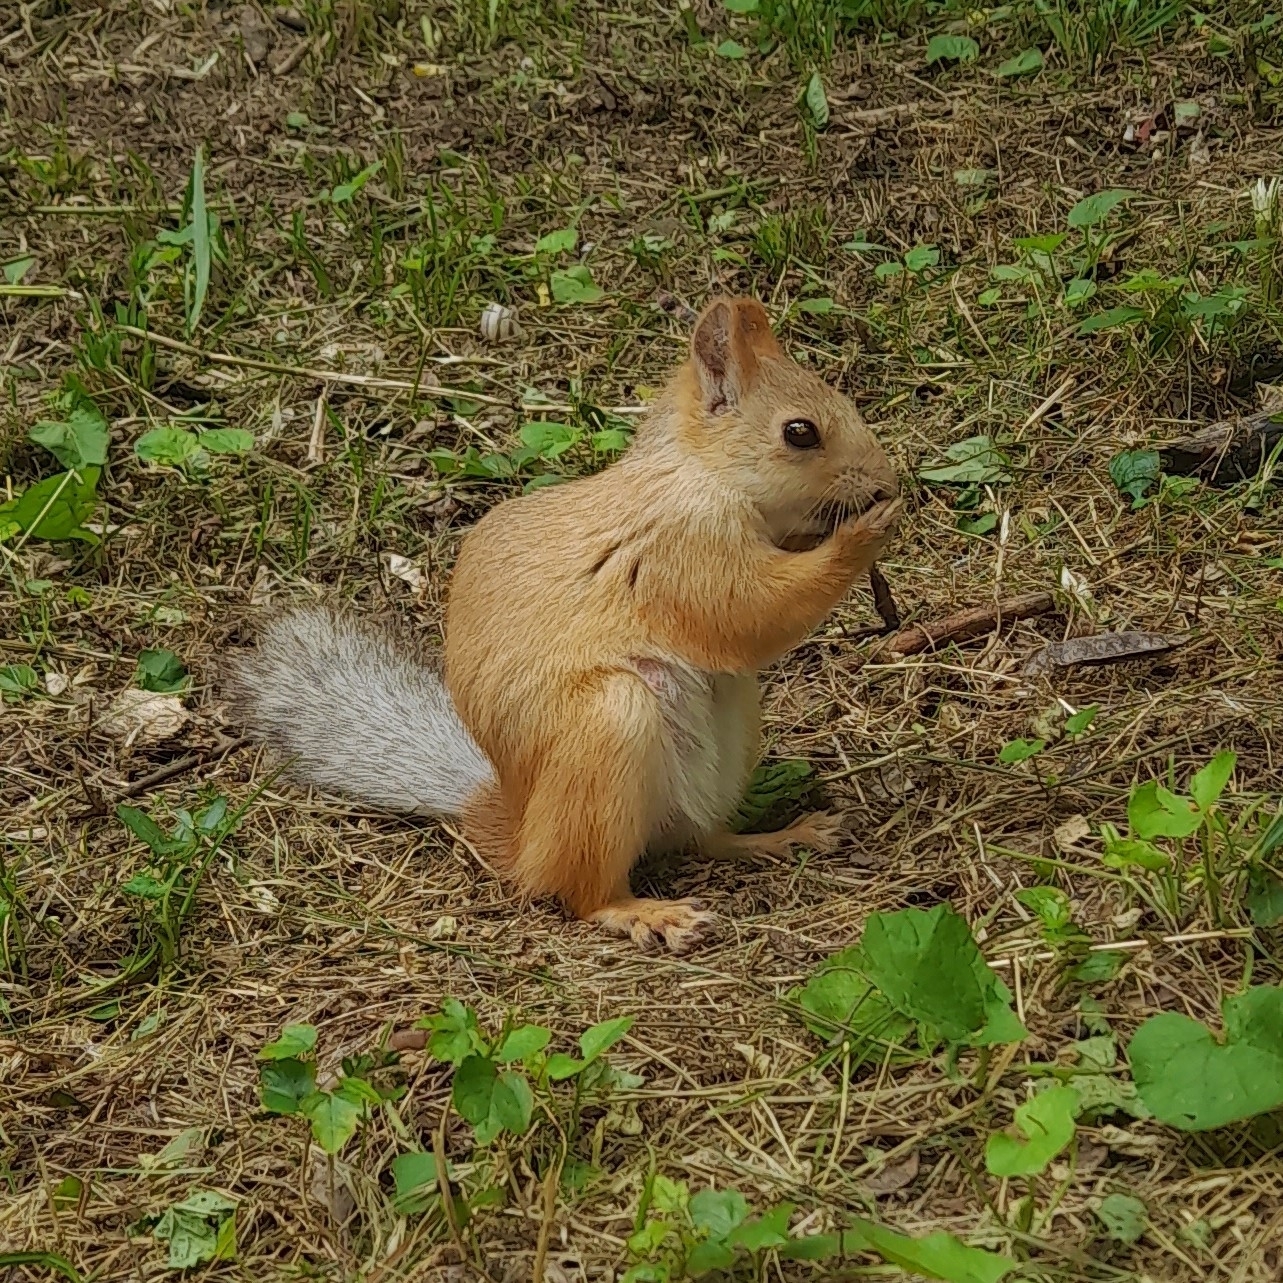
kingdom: Animalia
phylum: Chordata
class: Mammalia
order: Rodentia
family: Sciuridae
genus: Sciurus
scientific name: Sciurus vulgaris
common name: Eurasian red squirrel
